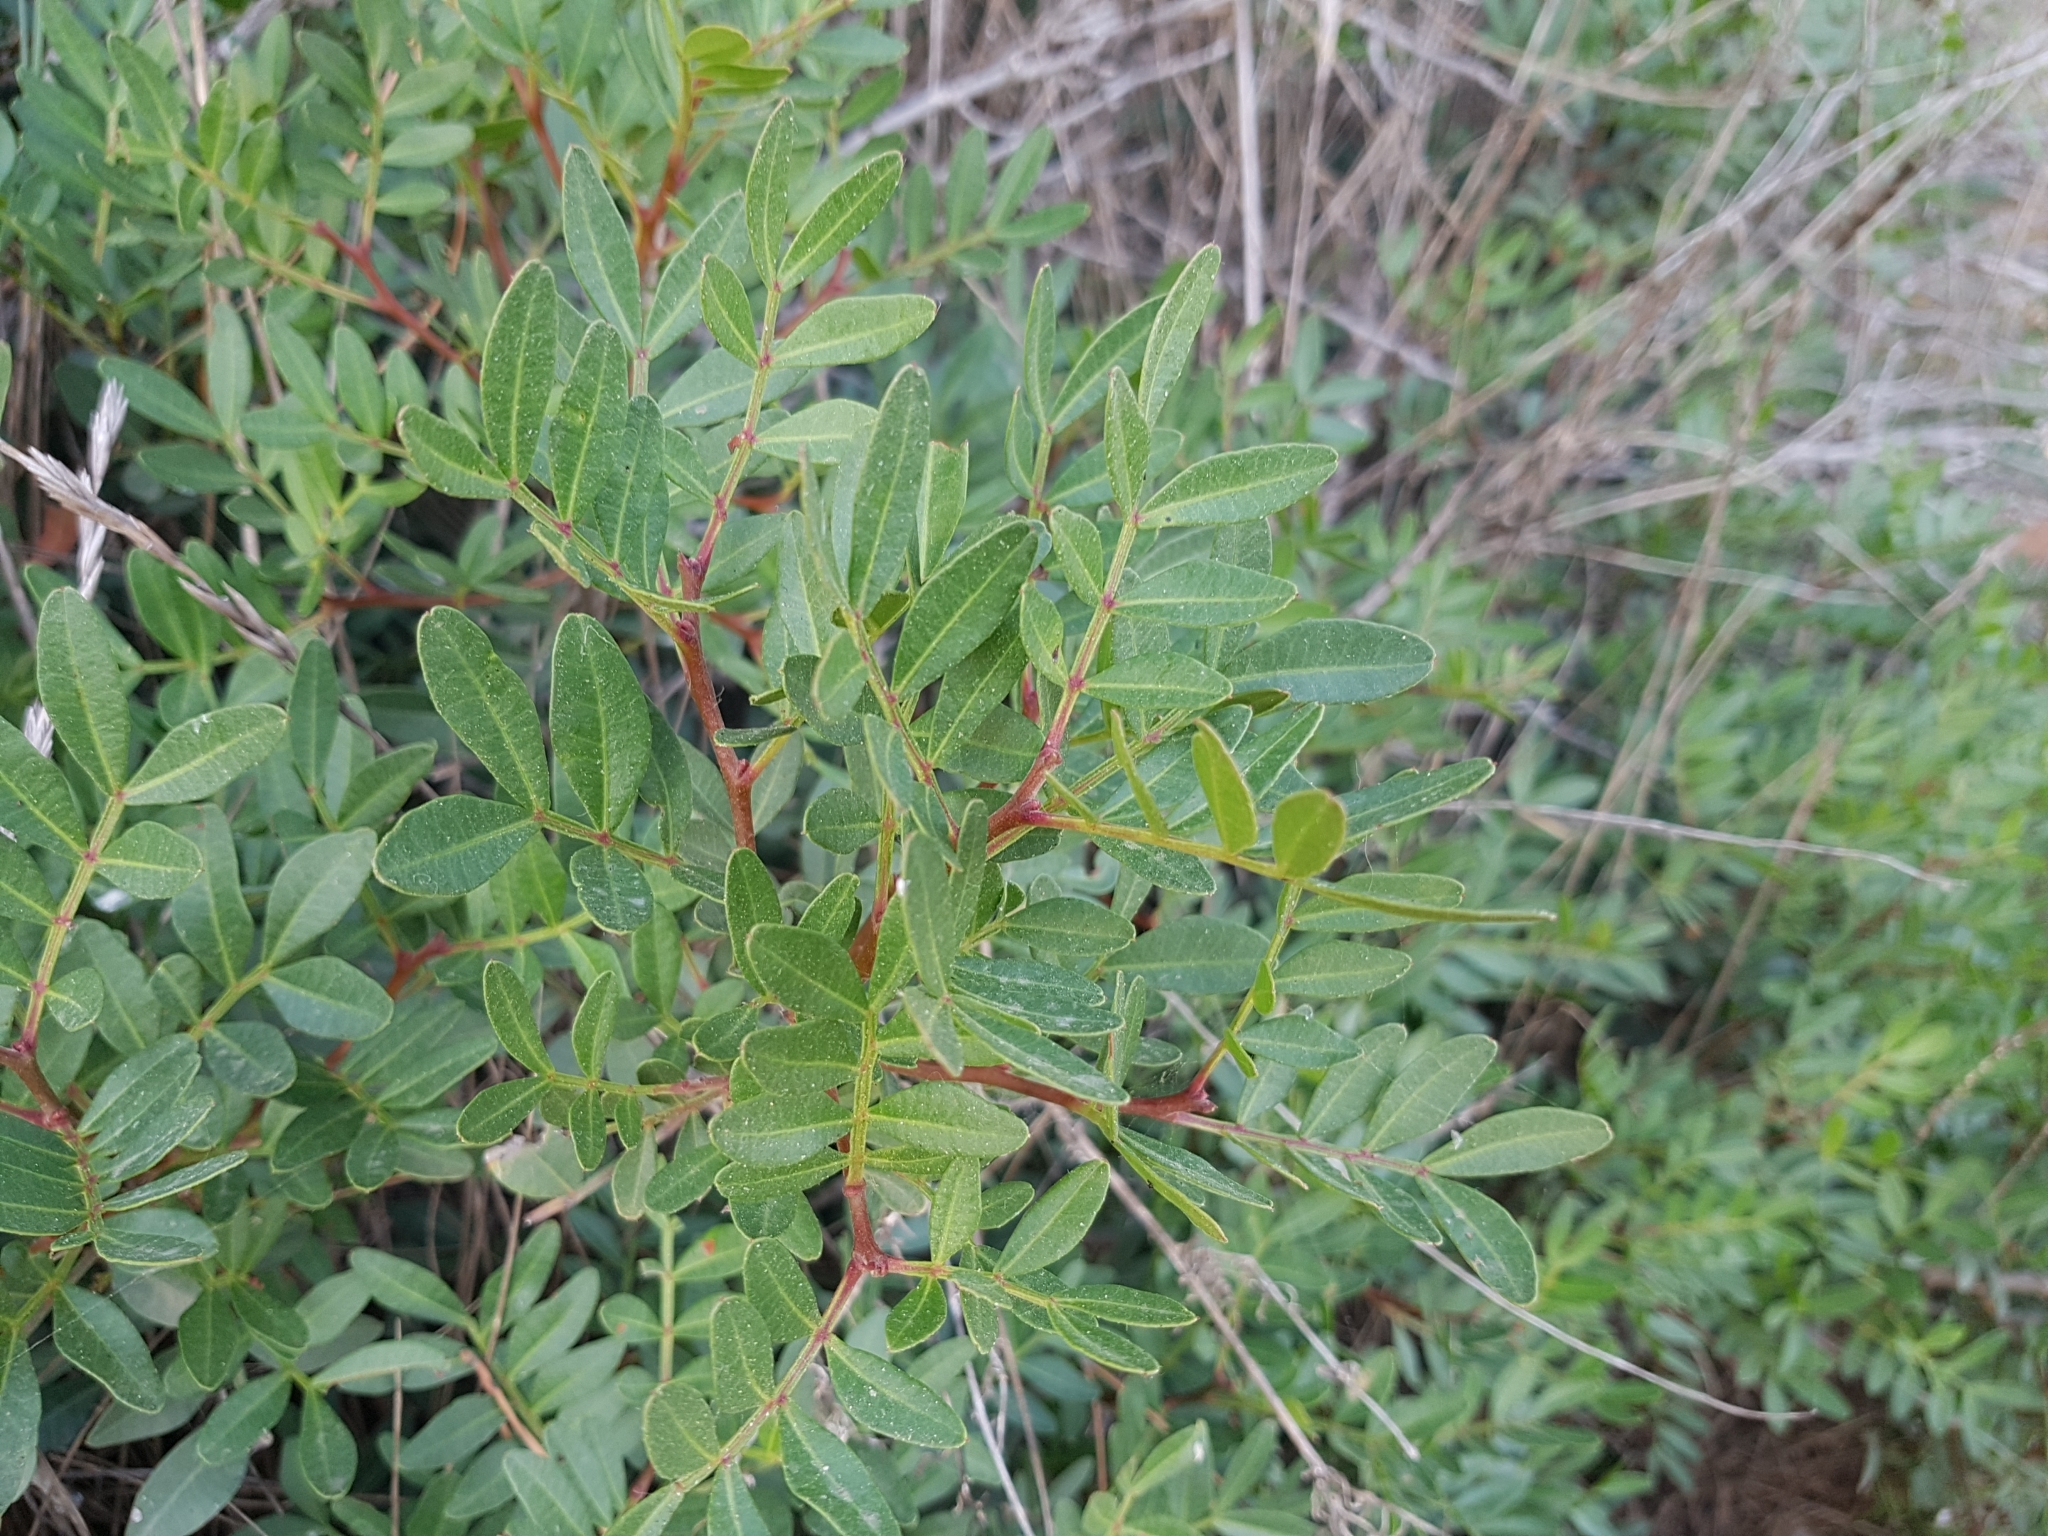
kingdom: Plantae
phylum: Tracheophyta
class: Magnoliopsida
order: Sapindales
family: Anacardiaceae
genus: Pistacia
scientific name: Pistacia lentiscus
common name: Lentisk
